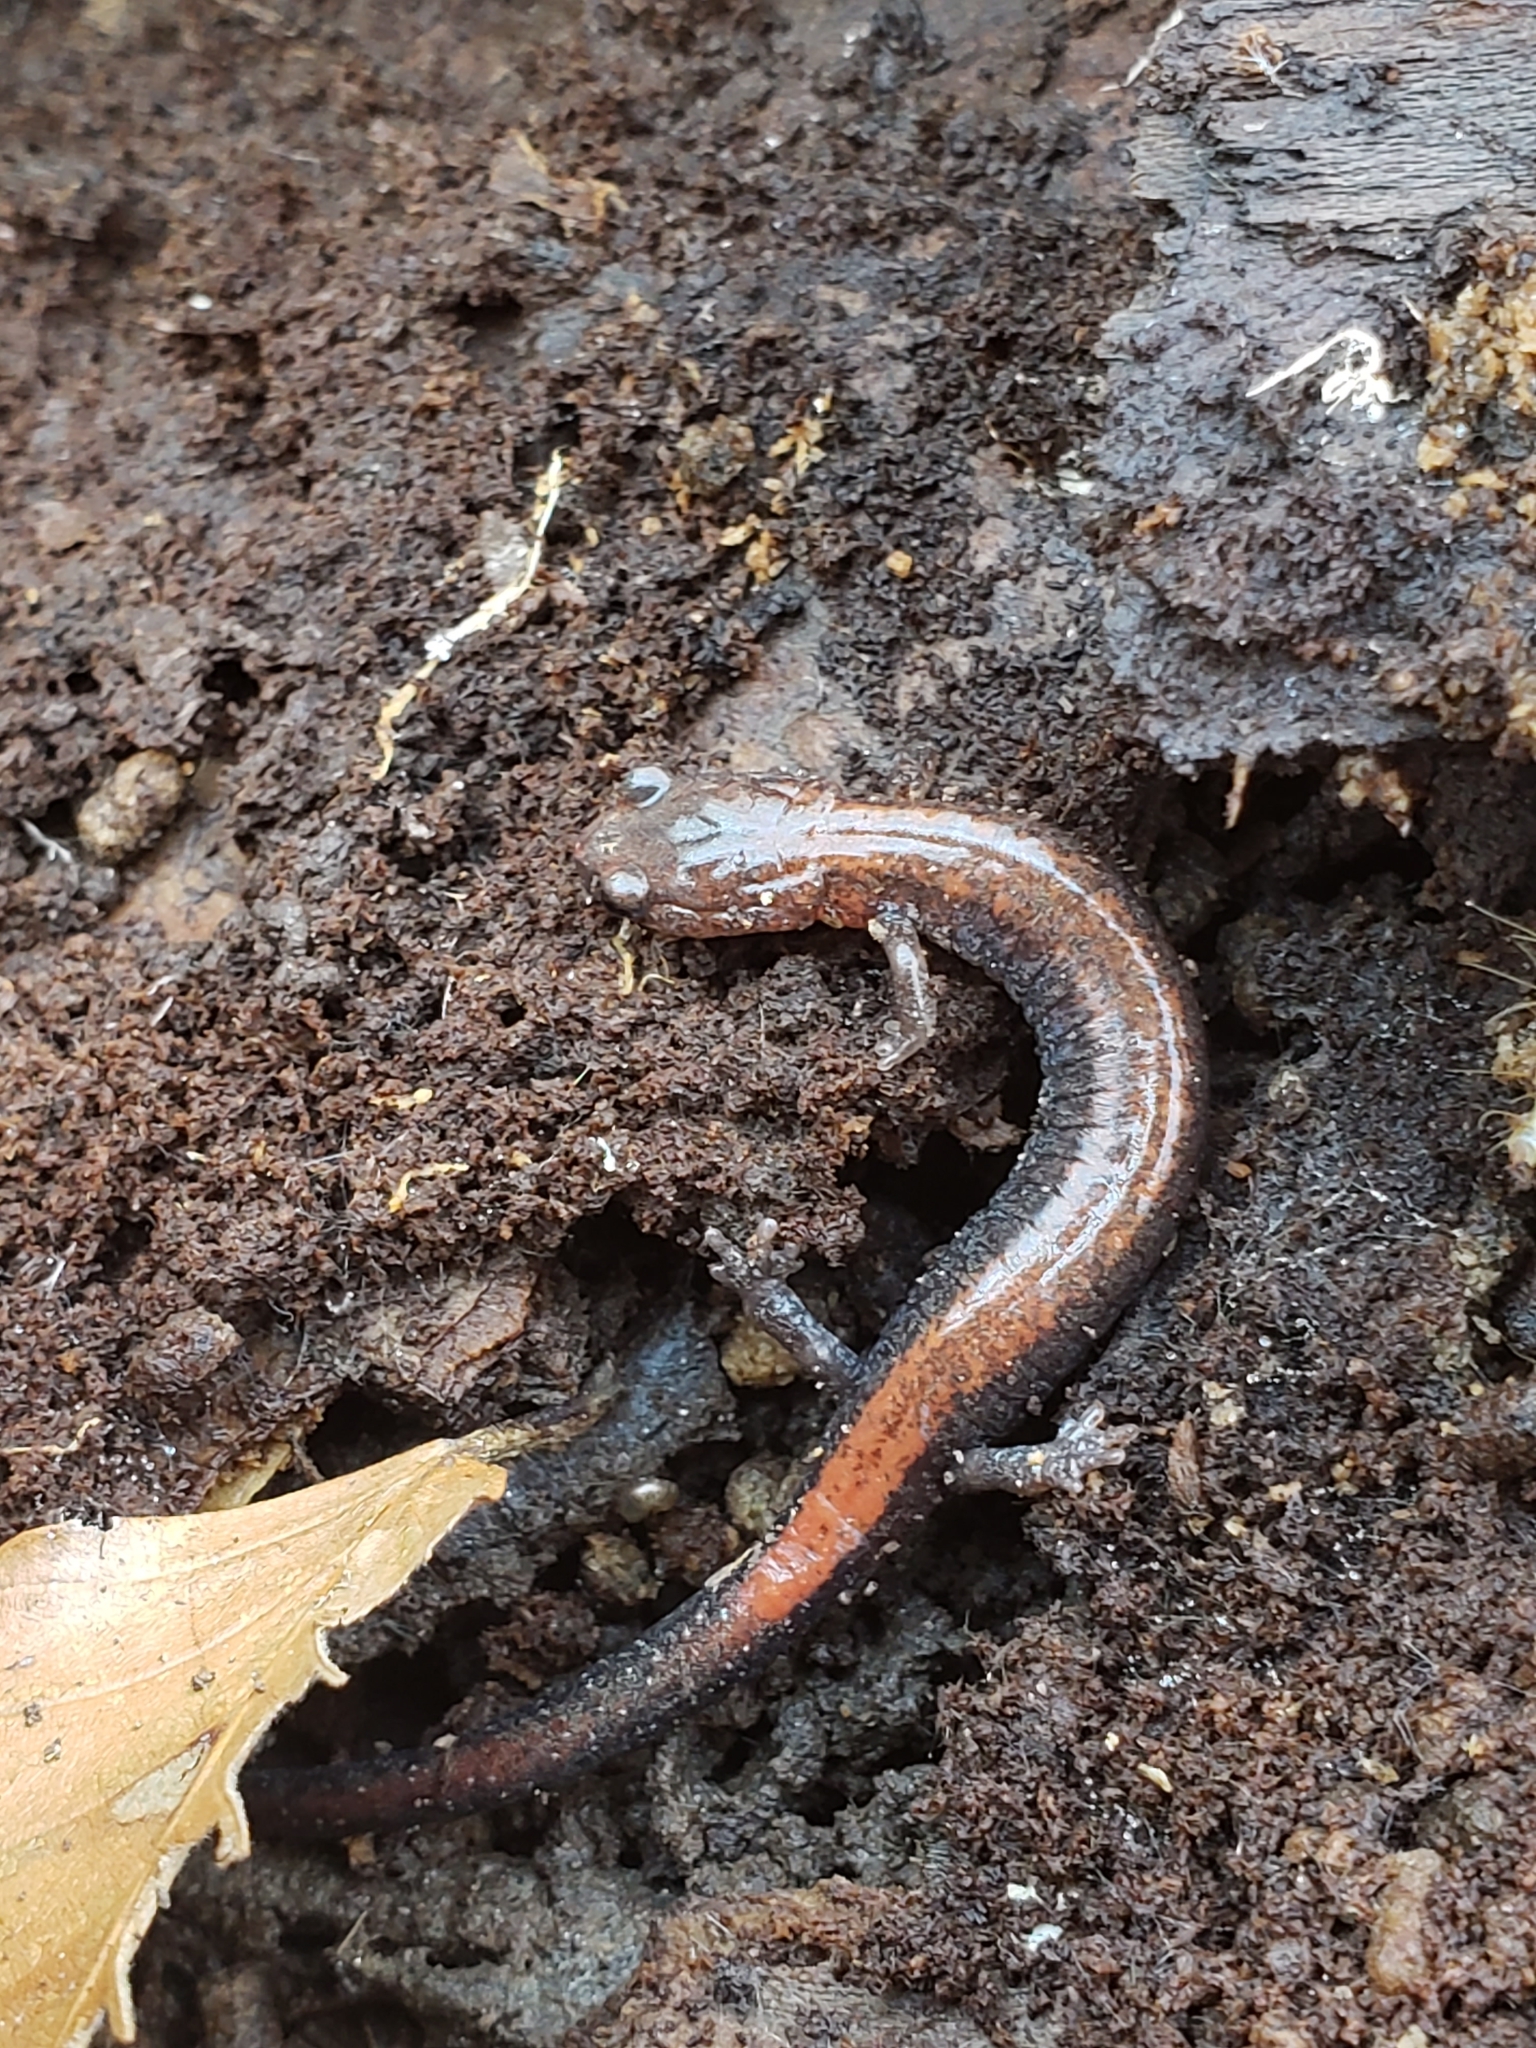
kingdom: Animalia
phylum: Chordata
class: Amphibia
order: Caudata
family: Plethodontidae
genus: Plethodon
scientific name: Plethodon cinereus
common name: Redback salamander
